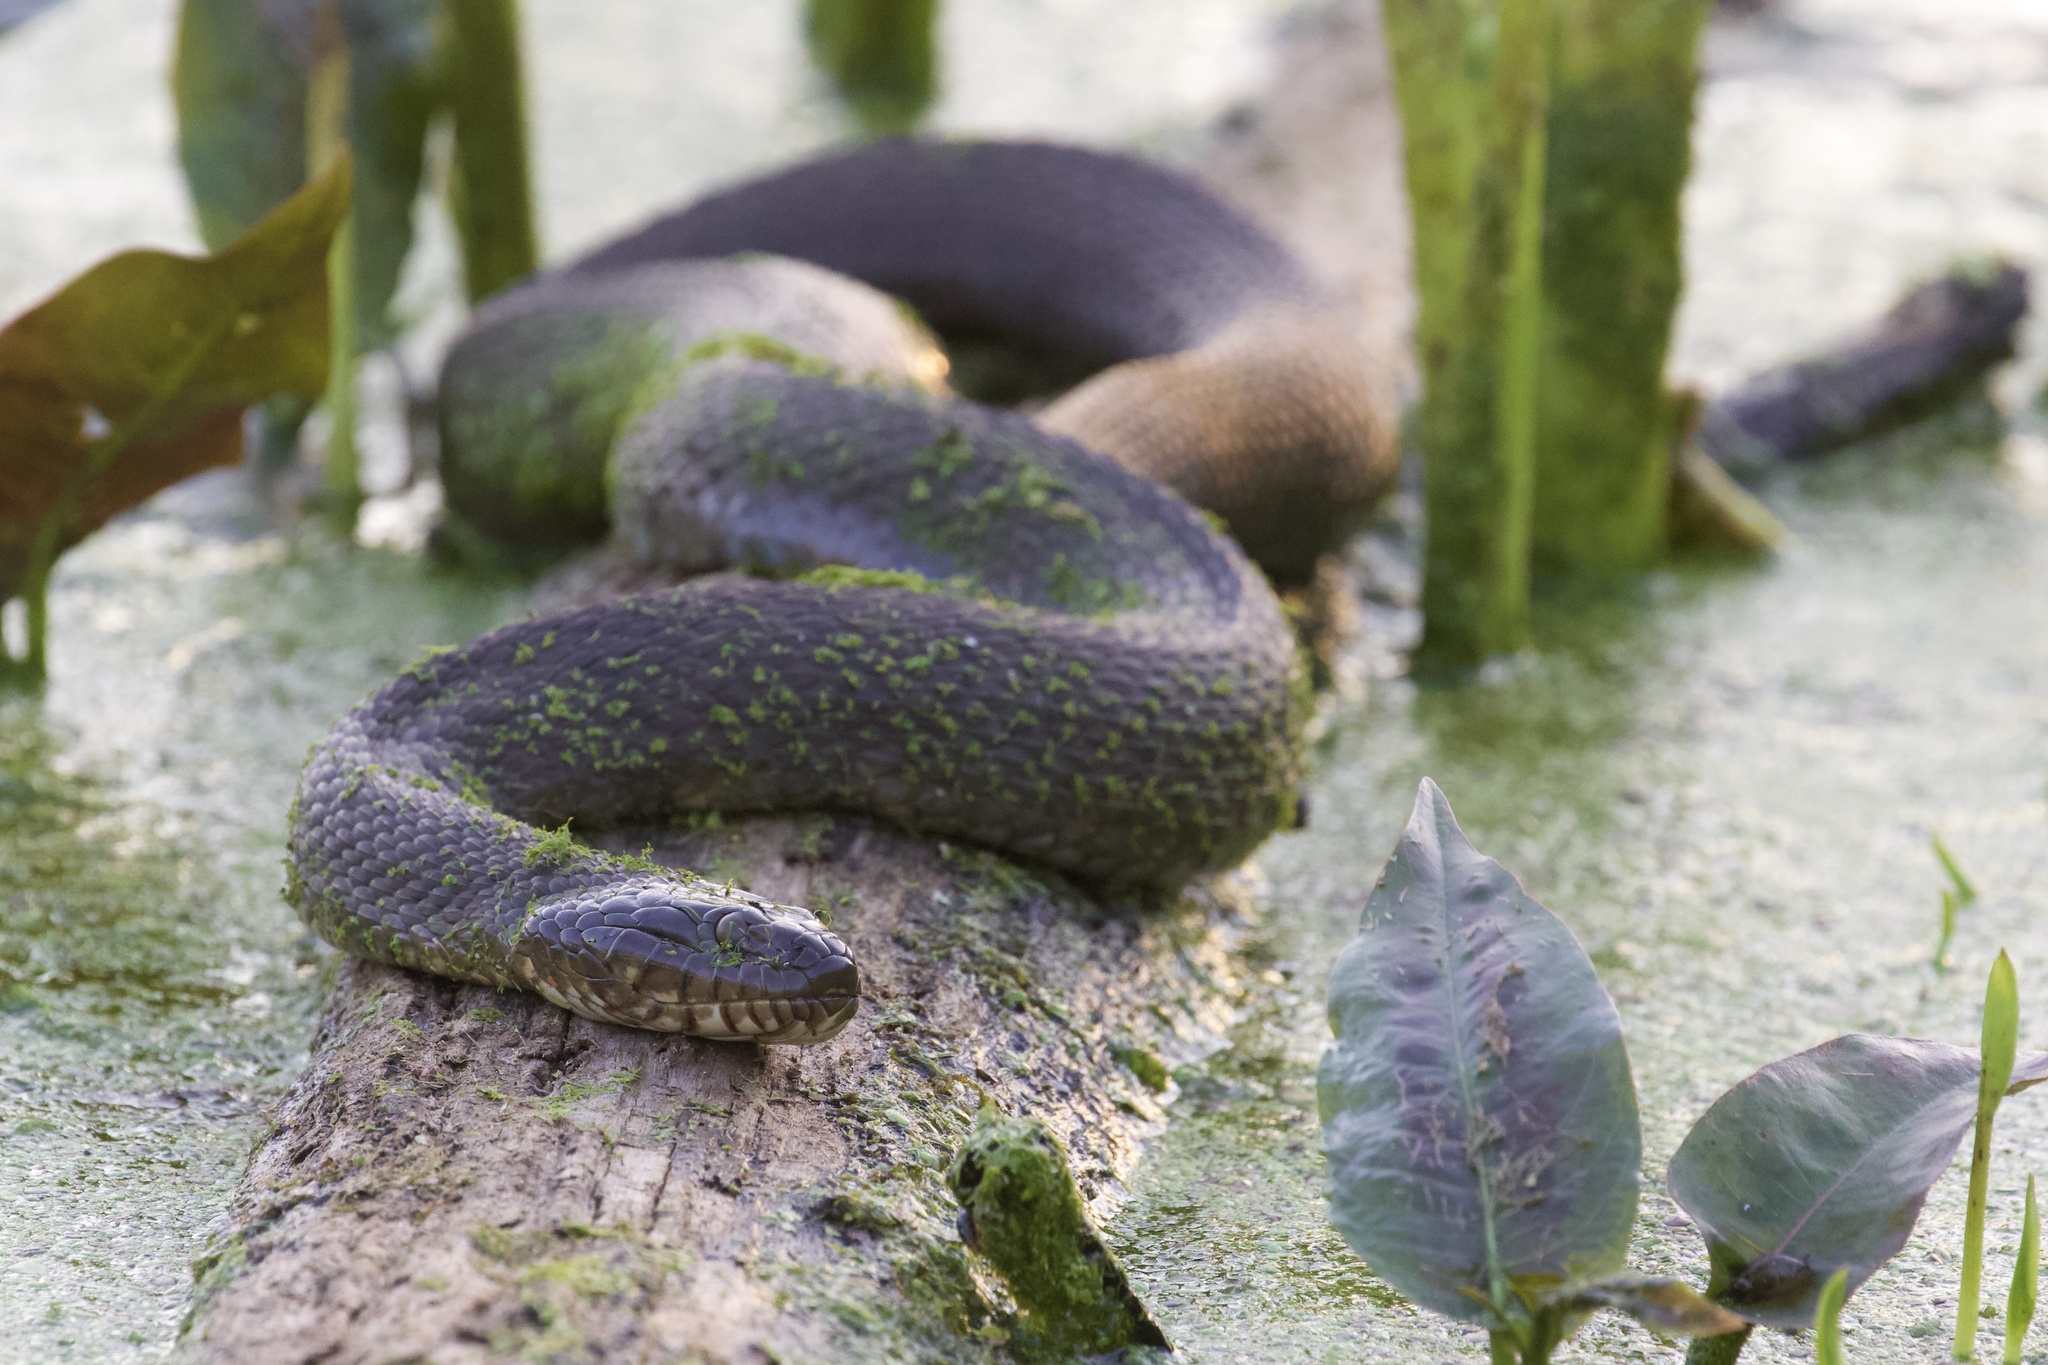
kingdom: Animalia
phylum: Chordata
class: Squamata
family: Colubridae
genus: Nerodia
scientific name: Nerodia sipedon
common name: Northern water snake
